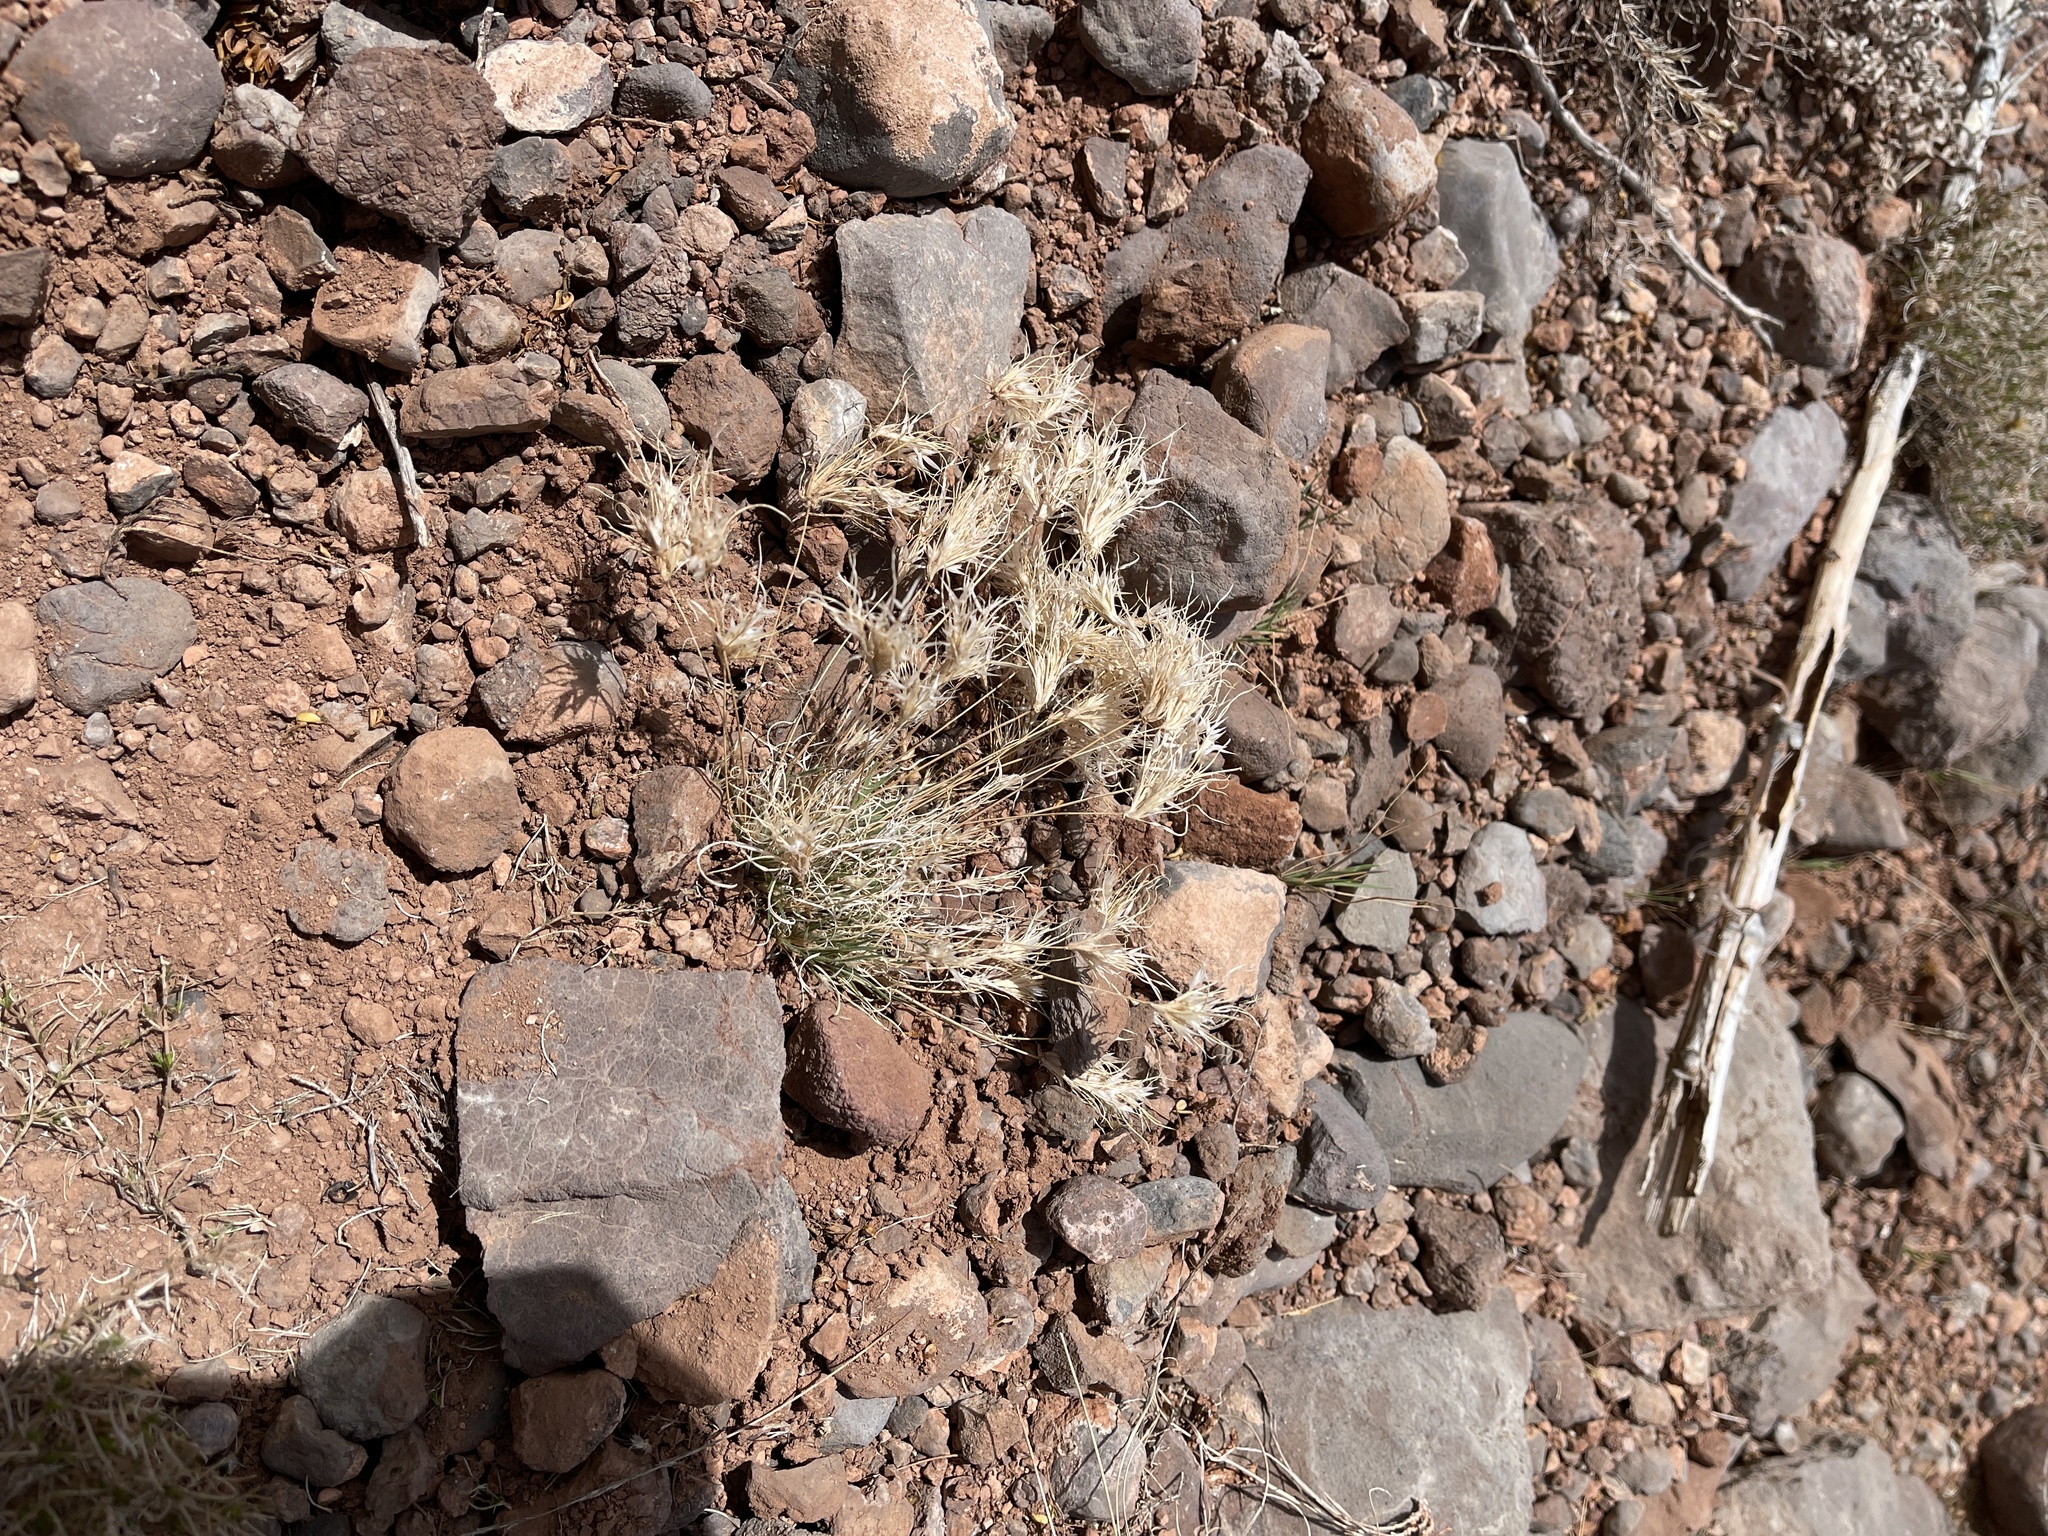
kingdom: Plantae
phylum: Tracheophyta
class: Liliopsida
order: Poales
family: Poaceae
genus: Dasyochloa
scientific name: Dasyochloa pulchella
